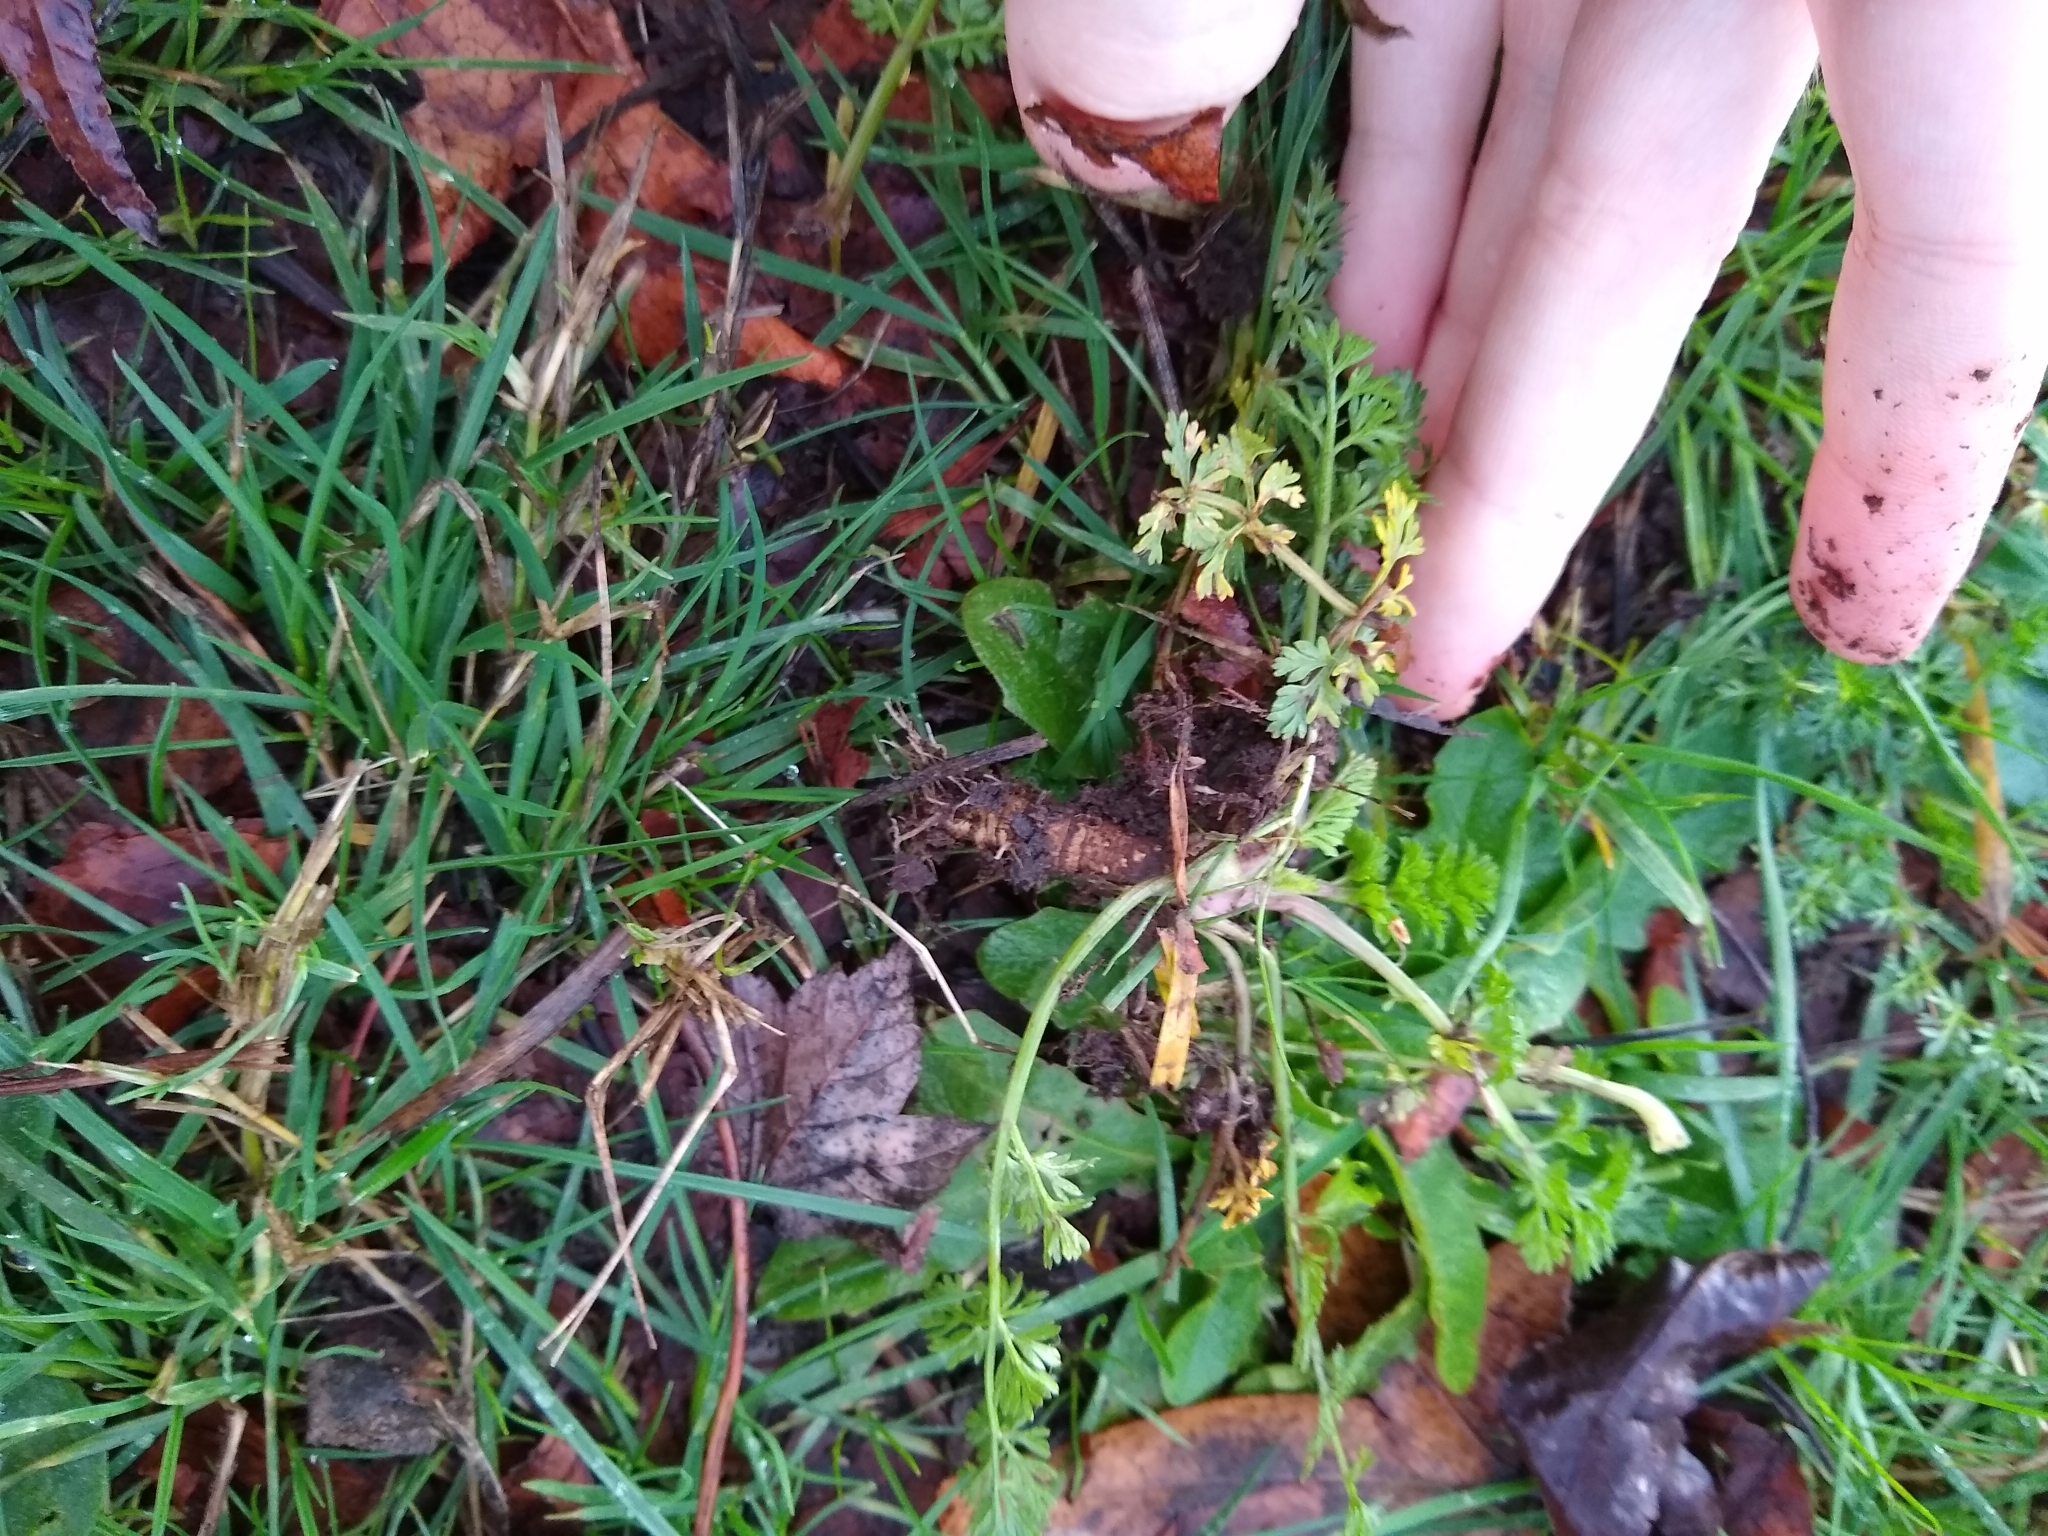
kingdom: Plantae
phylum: Tracheophyta
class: Magnoliopsida
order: Apiales
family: Apiaceae
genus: Daucus
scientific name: Daucus carota
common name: Wild carrot
